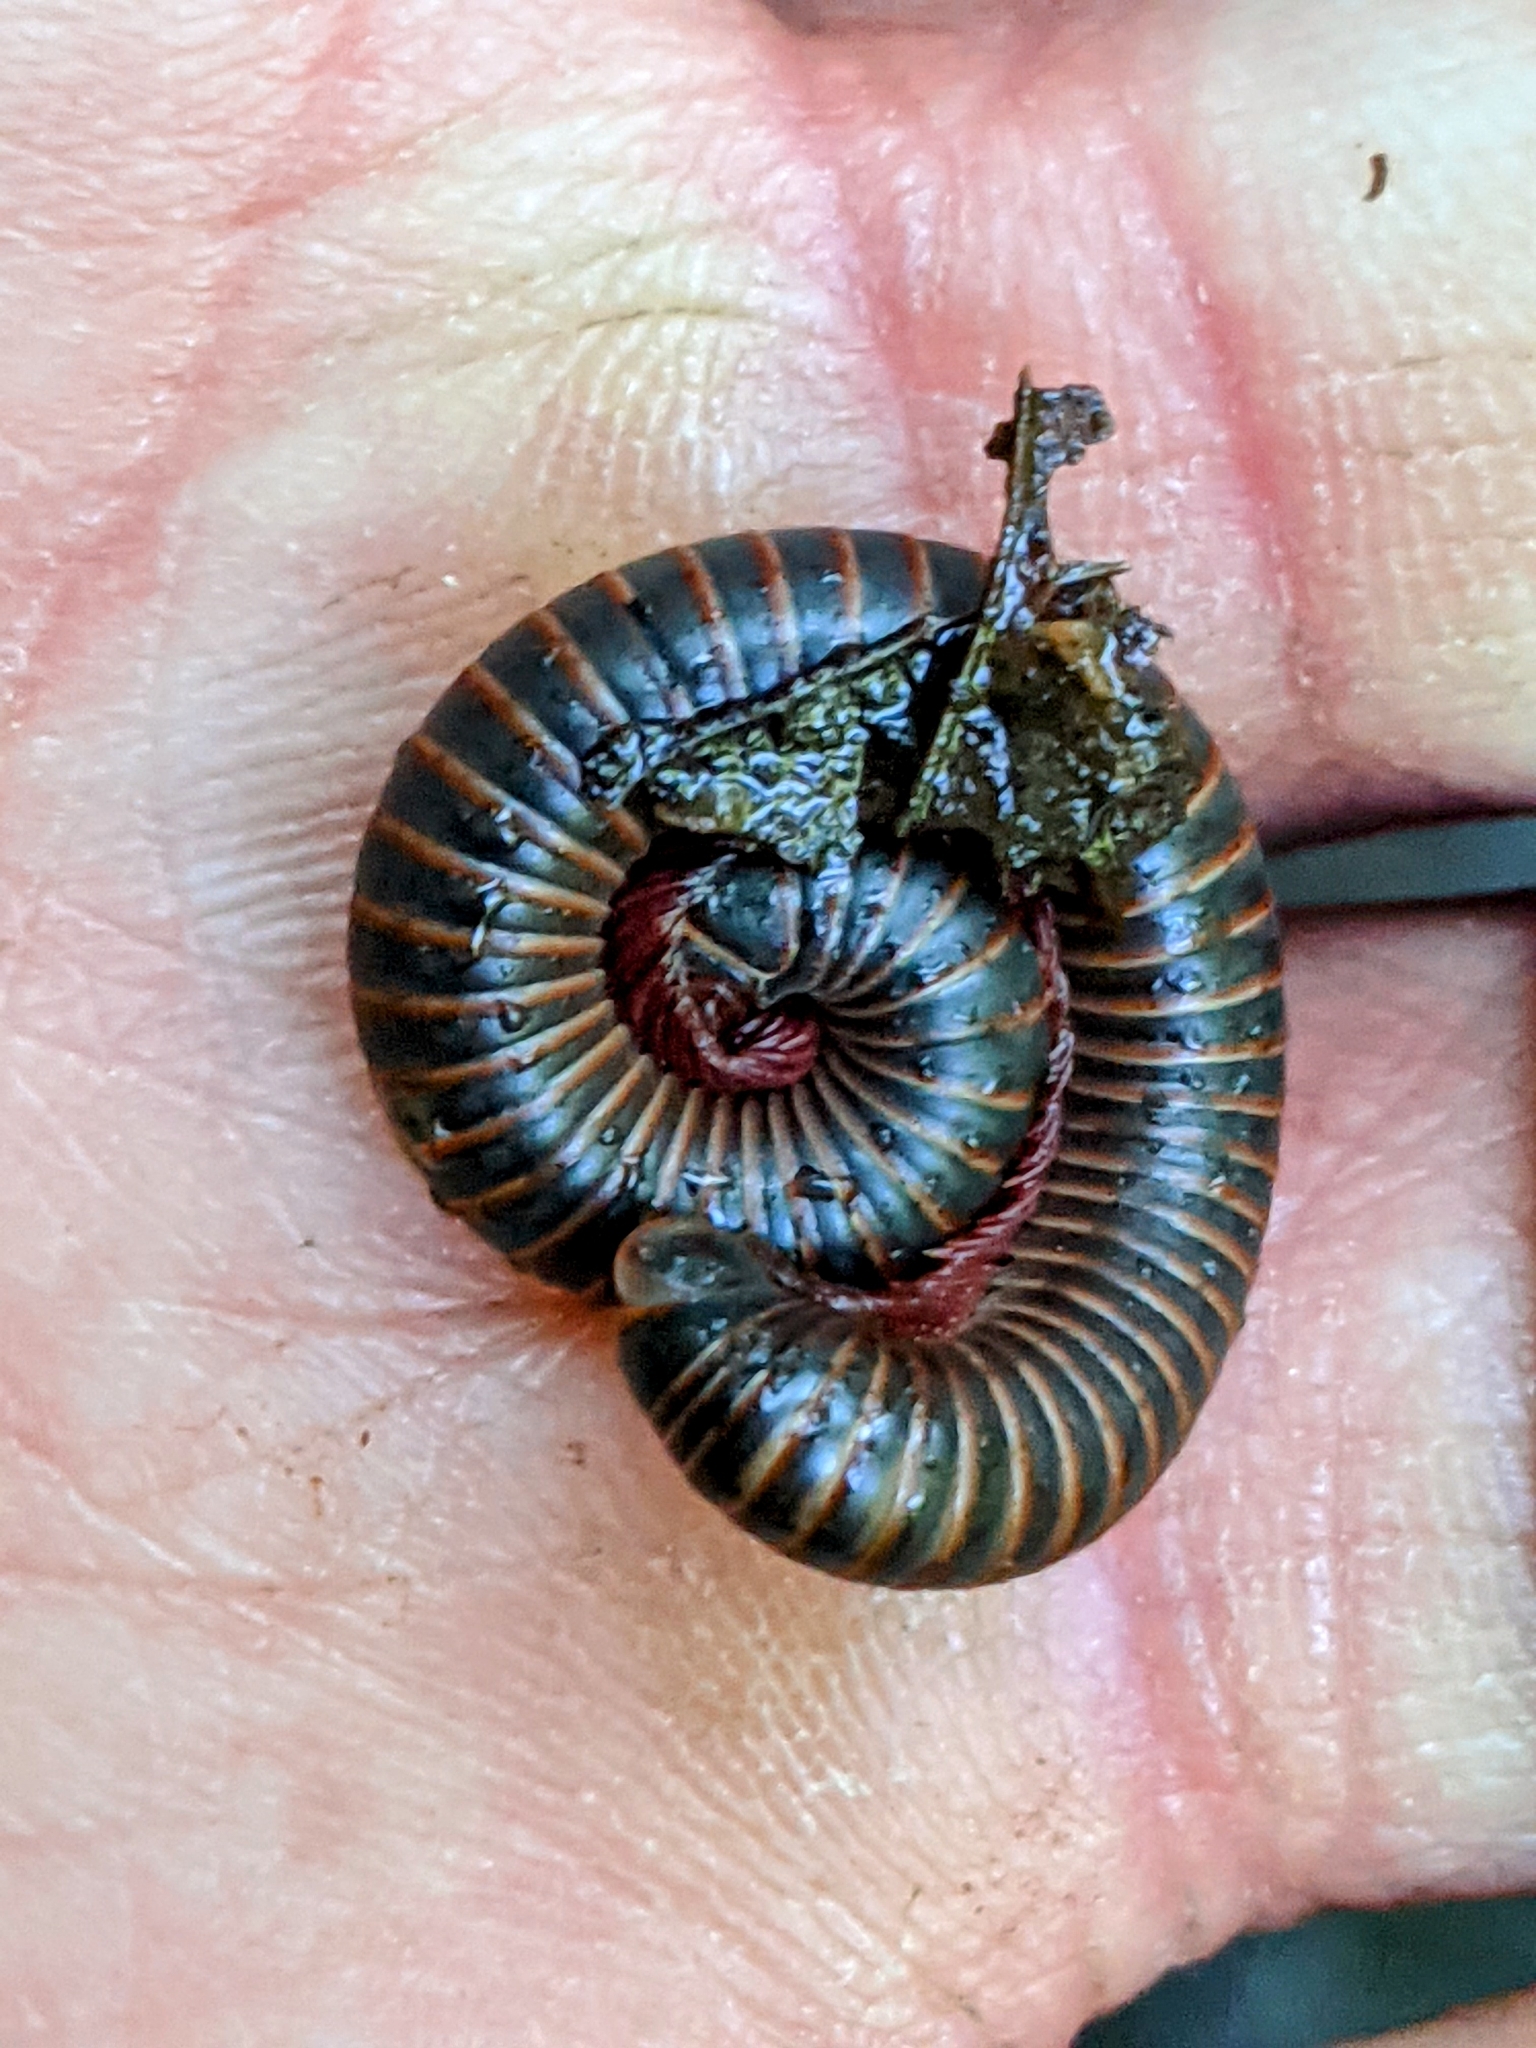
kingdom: Animalia
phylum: Arthropoda
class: Diplopoda
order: Spirobolida
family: Spirobolidae
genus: Narceus
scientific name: Narceus
